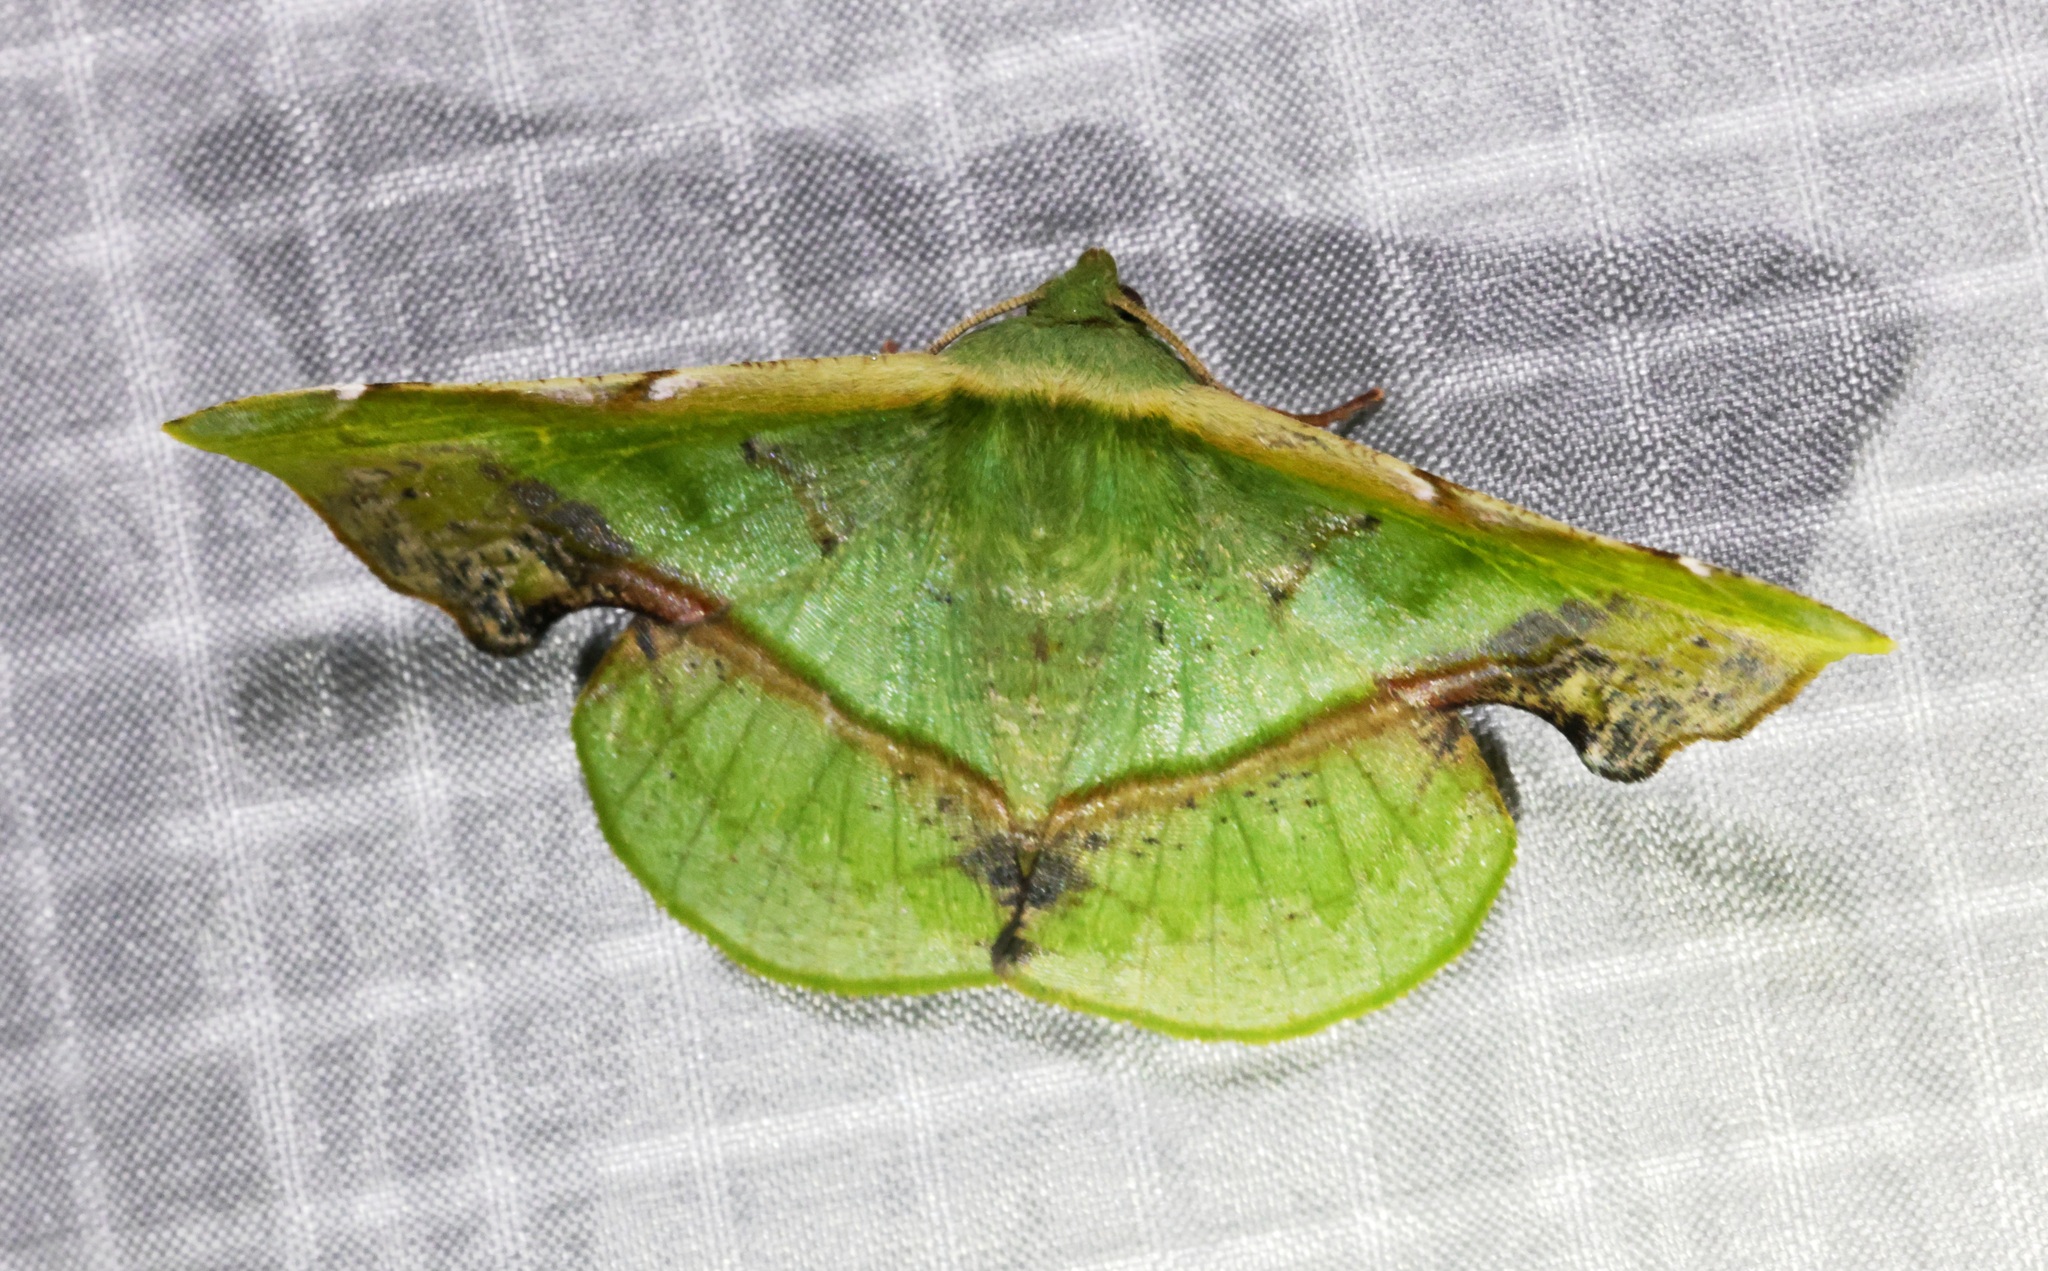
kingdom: Animalia
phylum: Arthropoda
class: Insecta
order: Lepidoptera
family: Geometridae
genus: Fascellina
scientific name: Fascellina plagiata
